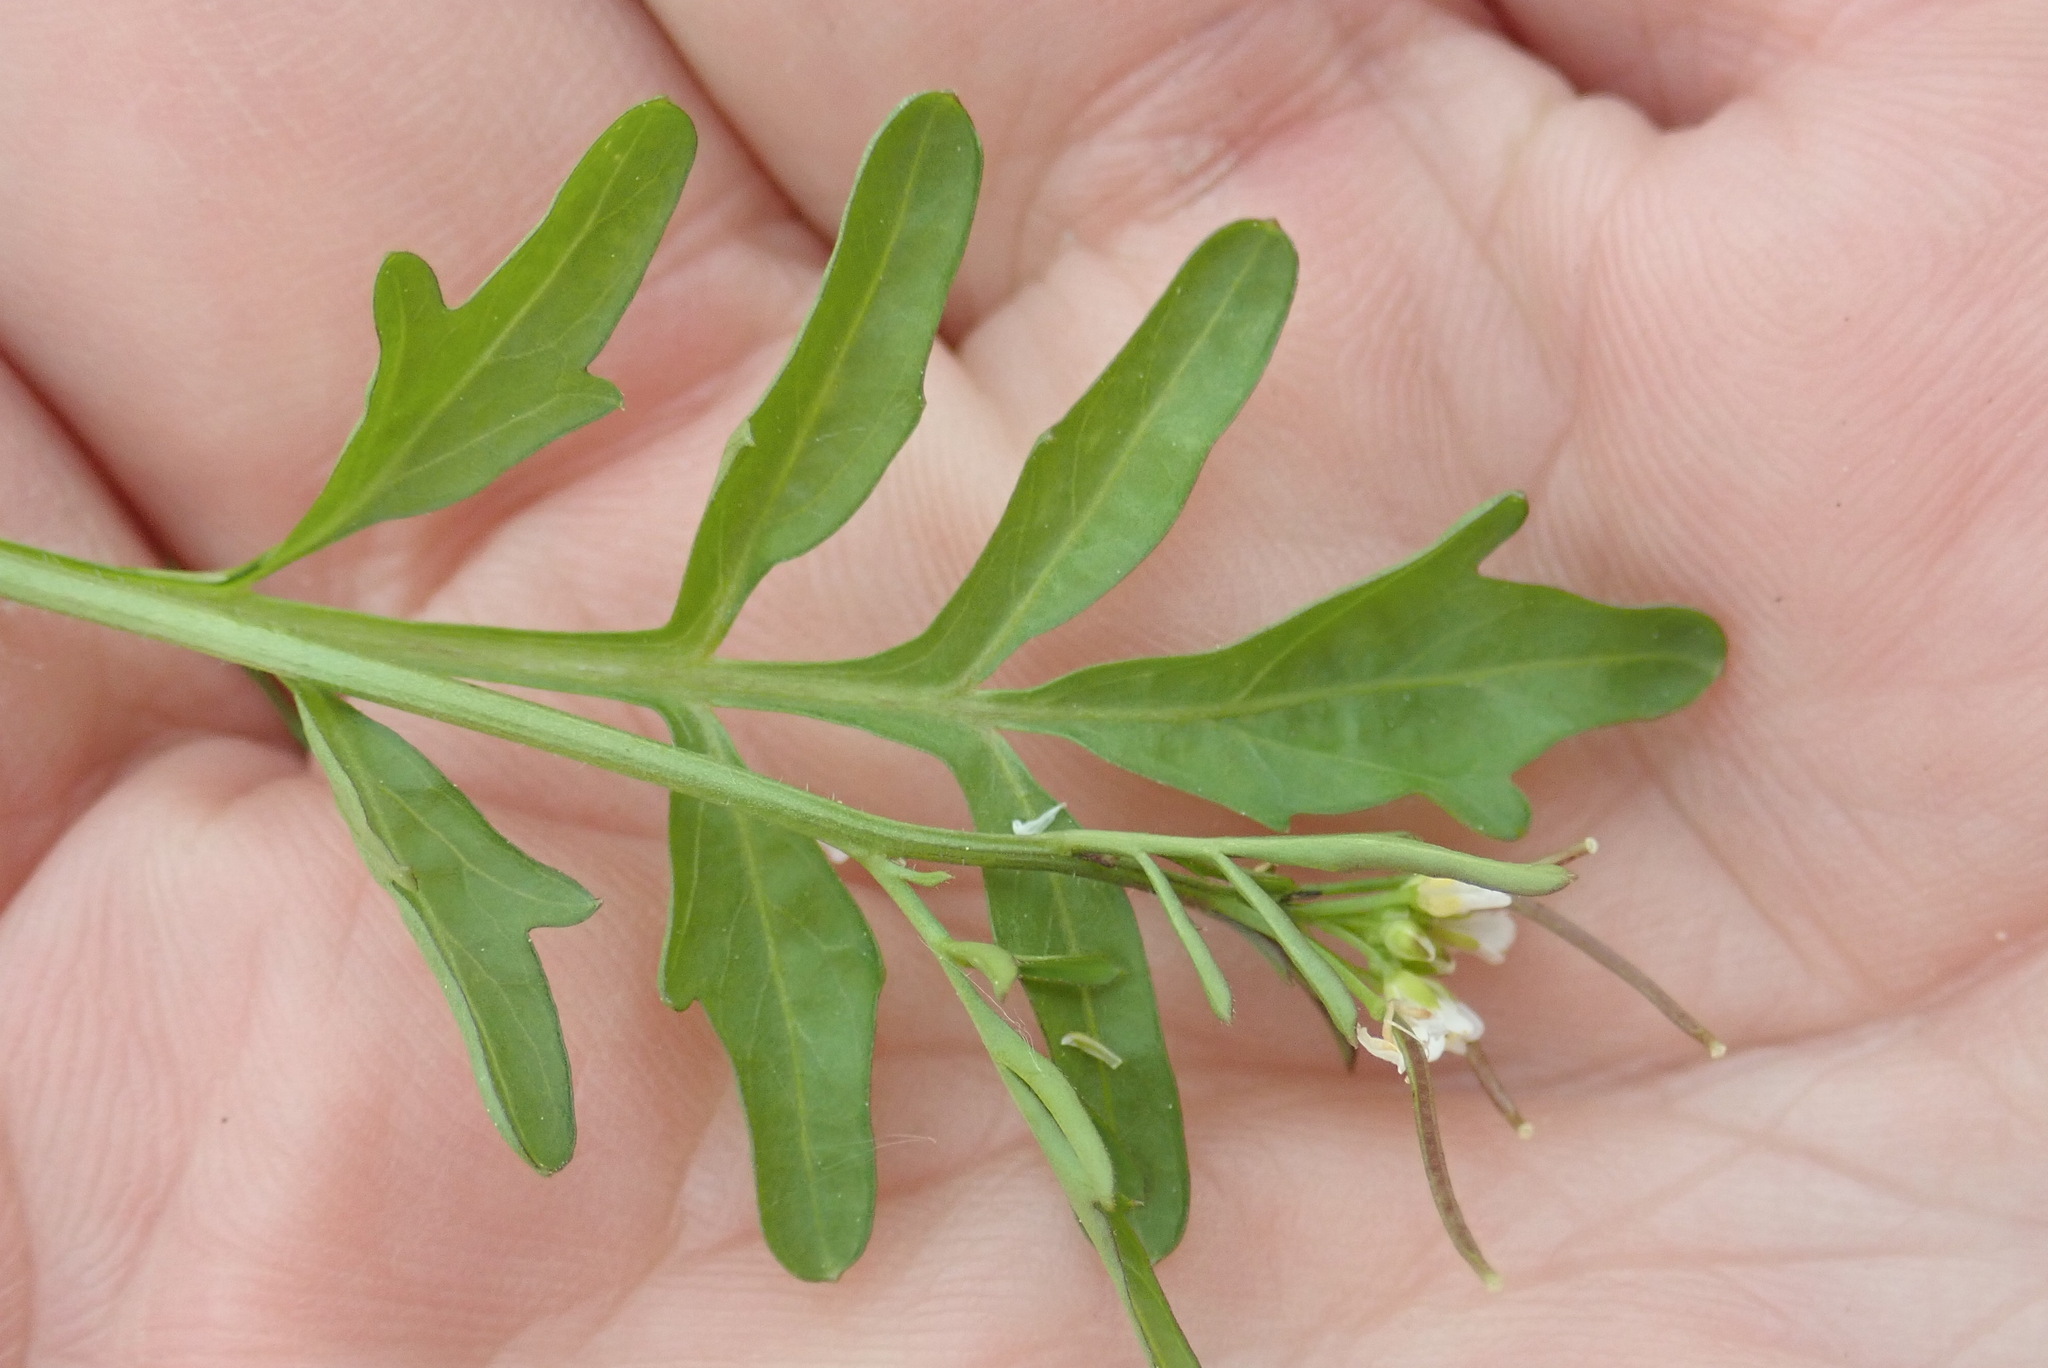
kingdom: Plantae
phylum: Tracheophyta
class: Magnoliopsida
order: Brassicales
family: Brassicaceae
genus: Cardamine
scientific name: Cardamine pensylvanica
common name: Pennsylvania bittercress
